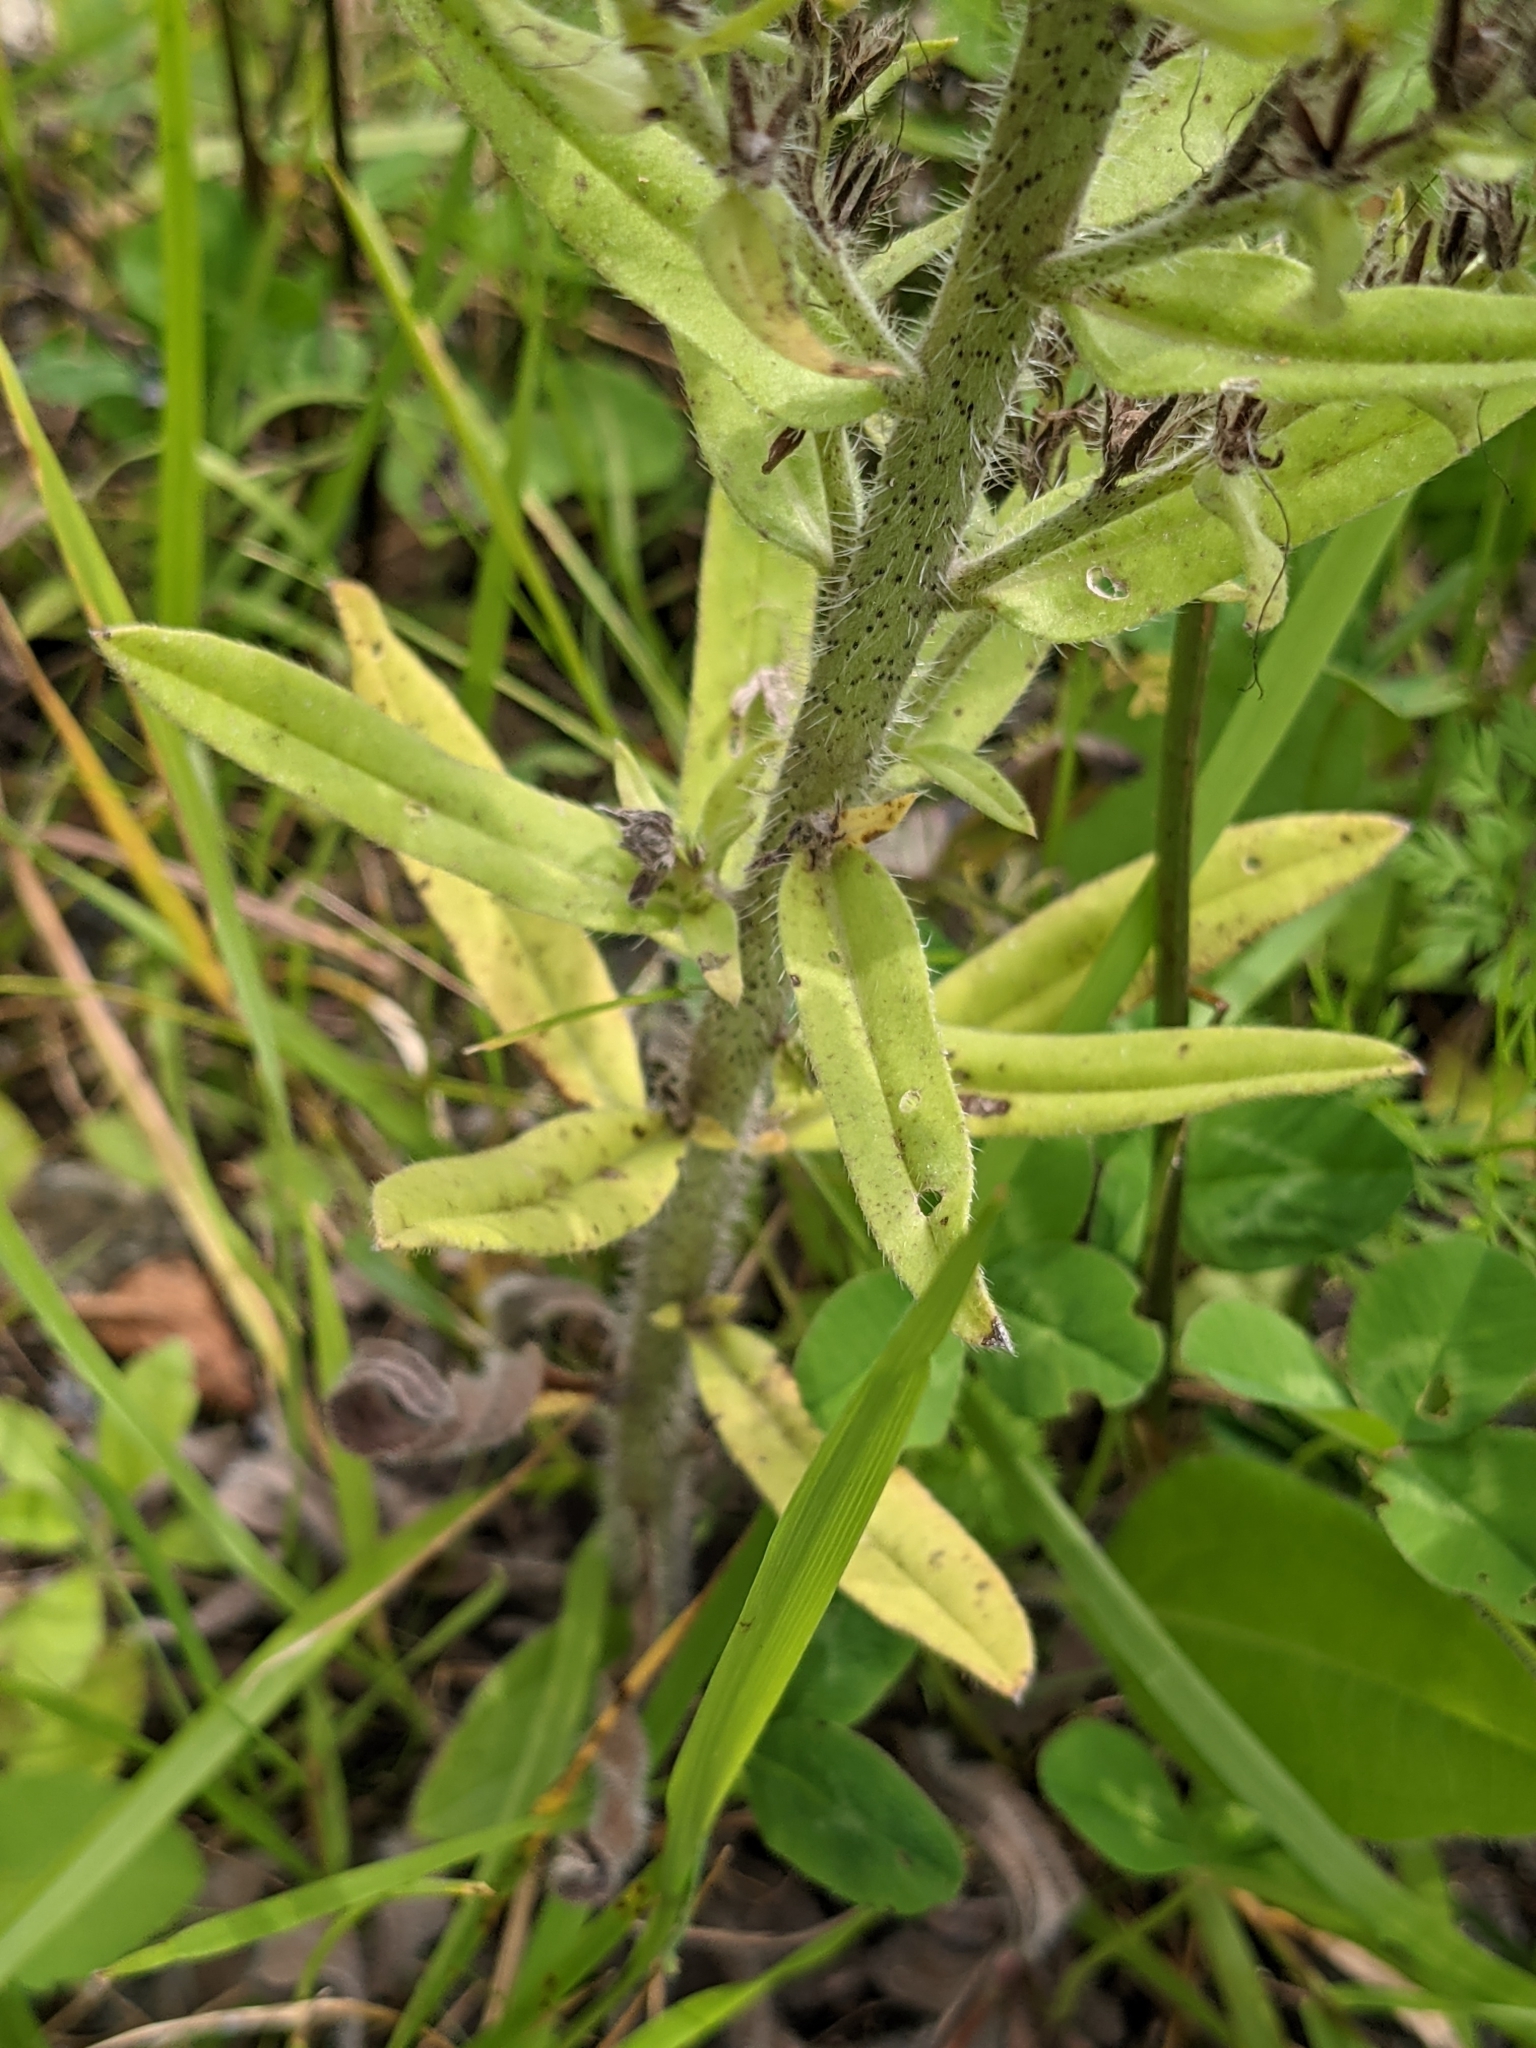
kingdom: Plantae
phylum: Tracheophyta
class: Magnoliopsida
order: Boraginales
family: Boraginaceae
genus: Echium
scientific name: Echium vulgare
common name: Common viper's bugloss
